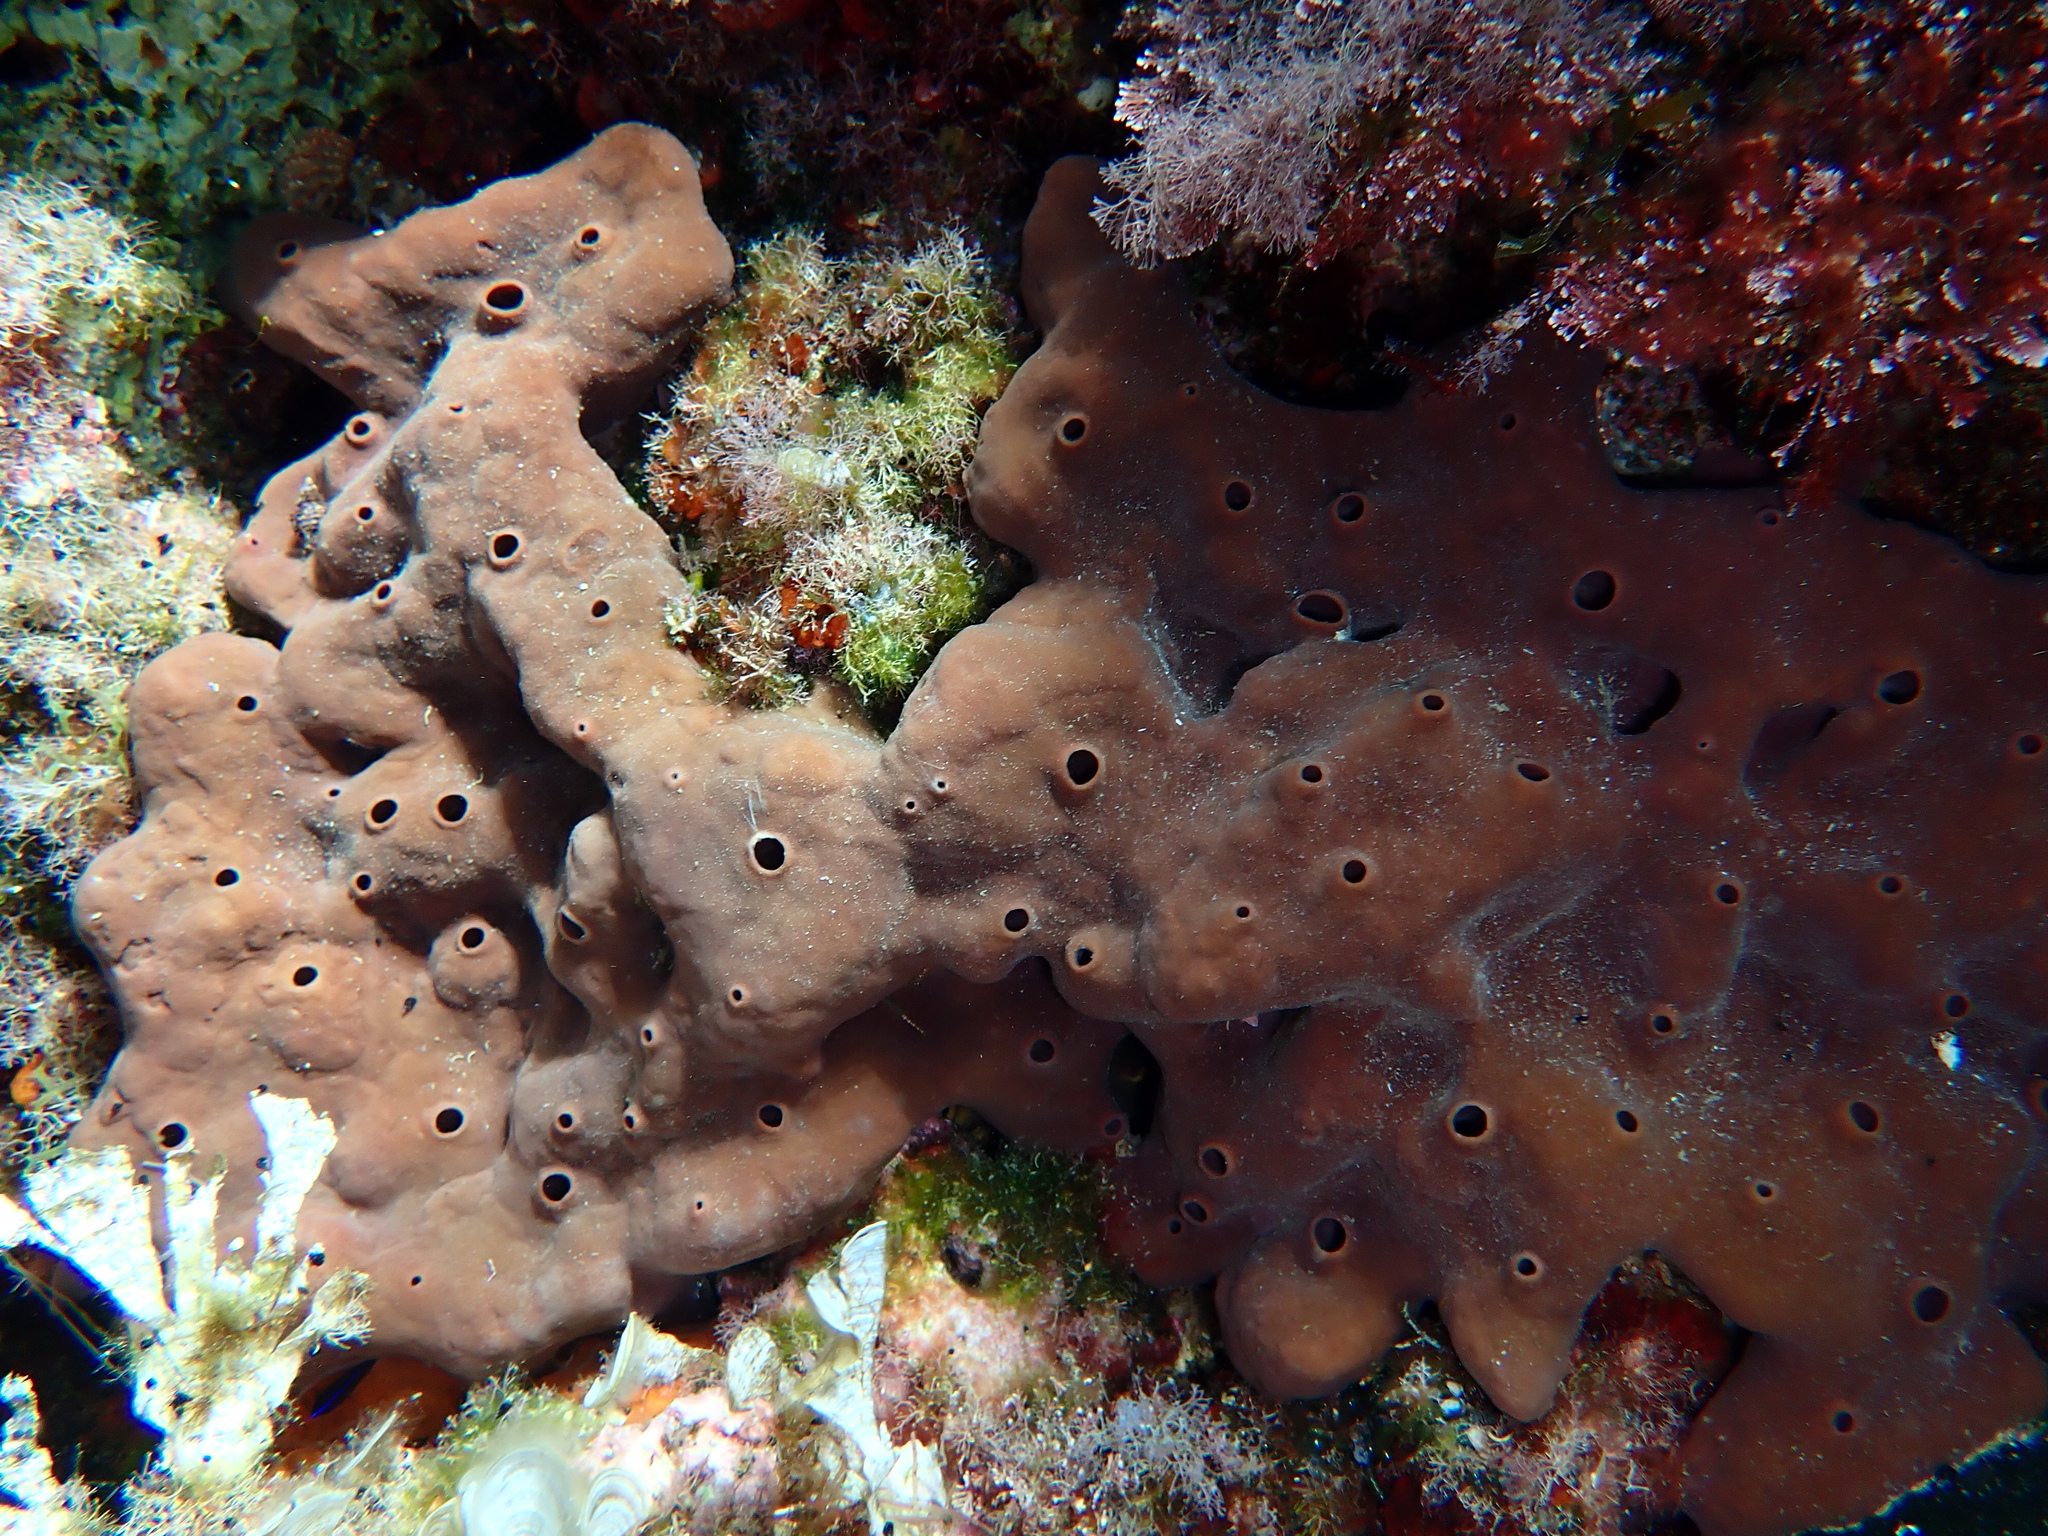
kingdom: Animalia
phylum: Porifera
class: Demospongiae
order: Haplosclerida
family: Petrosiidae
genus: Petrosia
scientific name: Petrosia ficiformis
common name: Stony sponge
